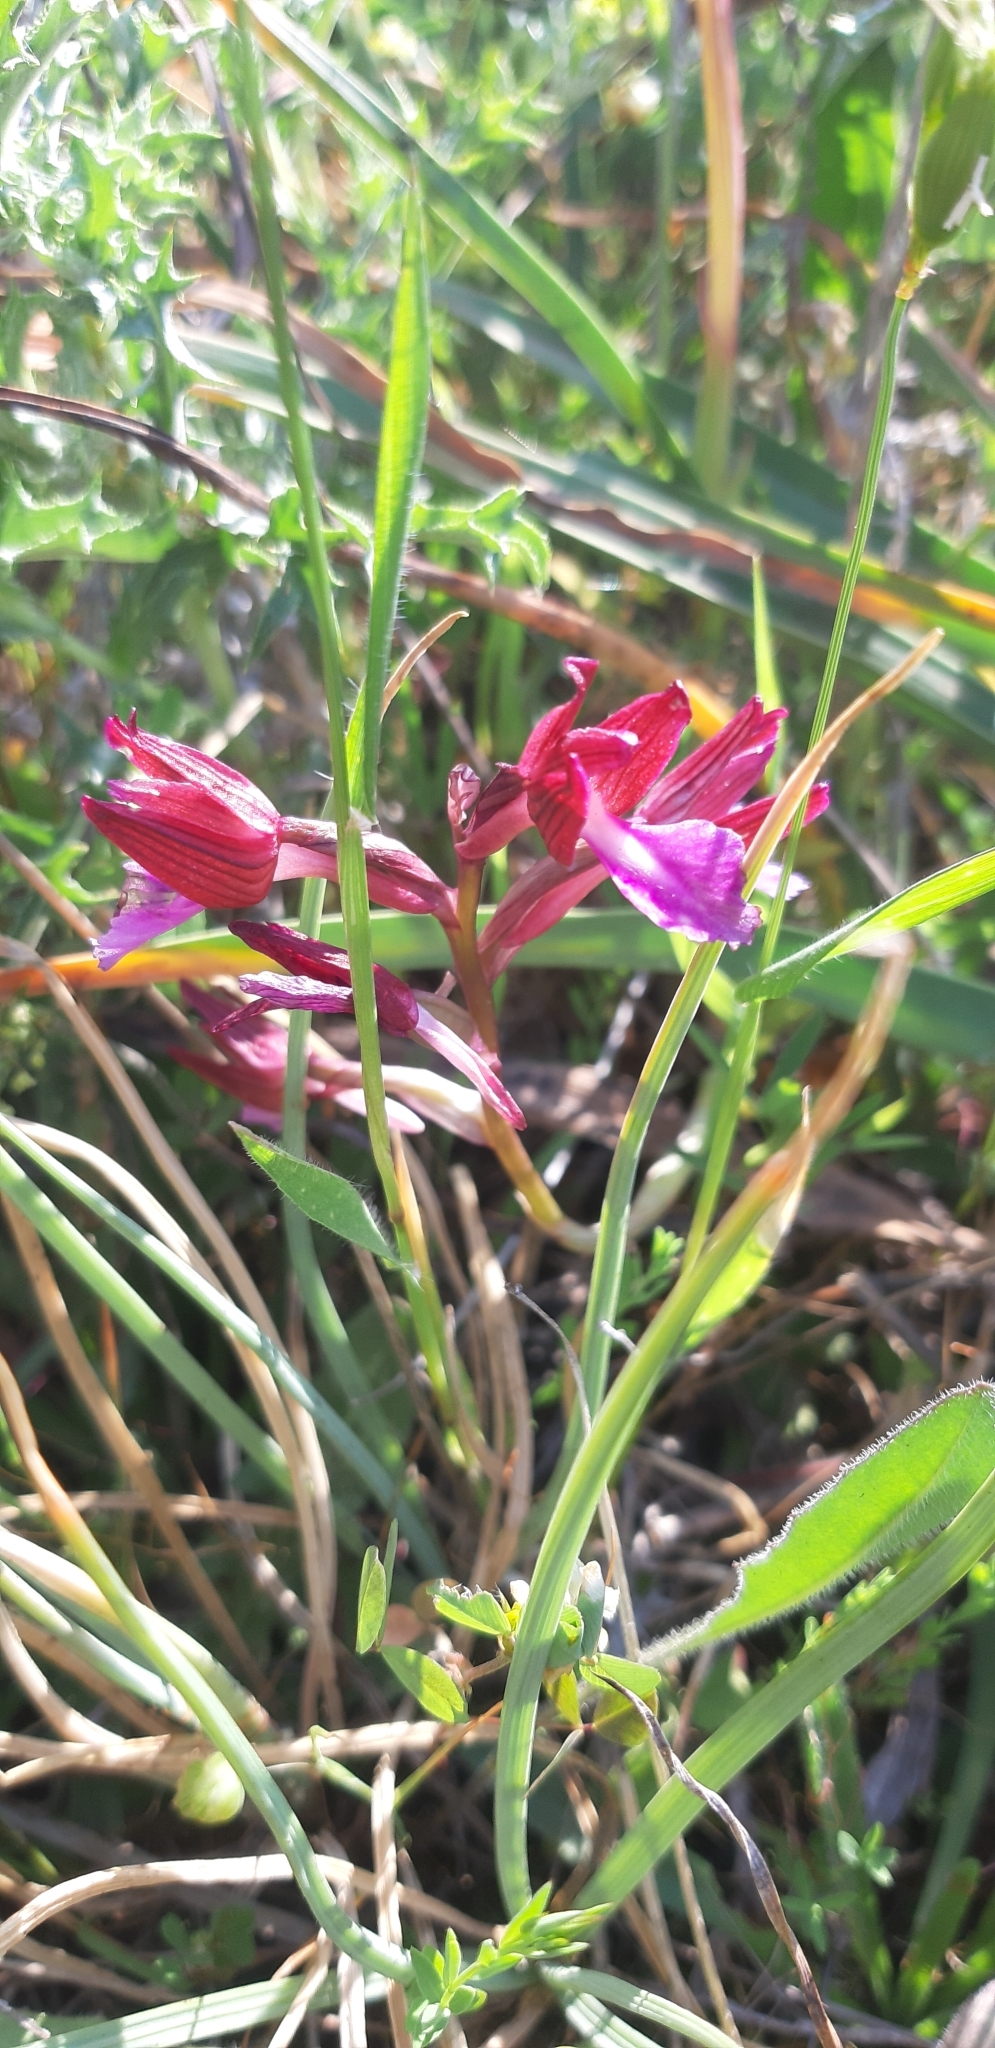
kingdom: Plantae
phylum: Tracheophyta
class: Liliopsida
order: Asparagales
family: Orchidaceae
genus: Anacamptis
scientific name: Anacamptis papilionacea
